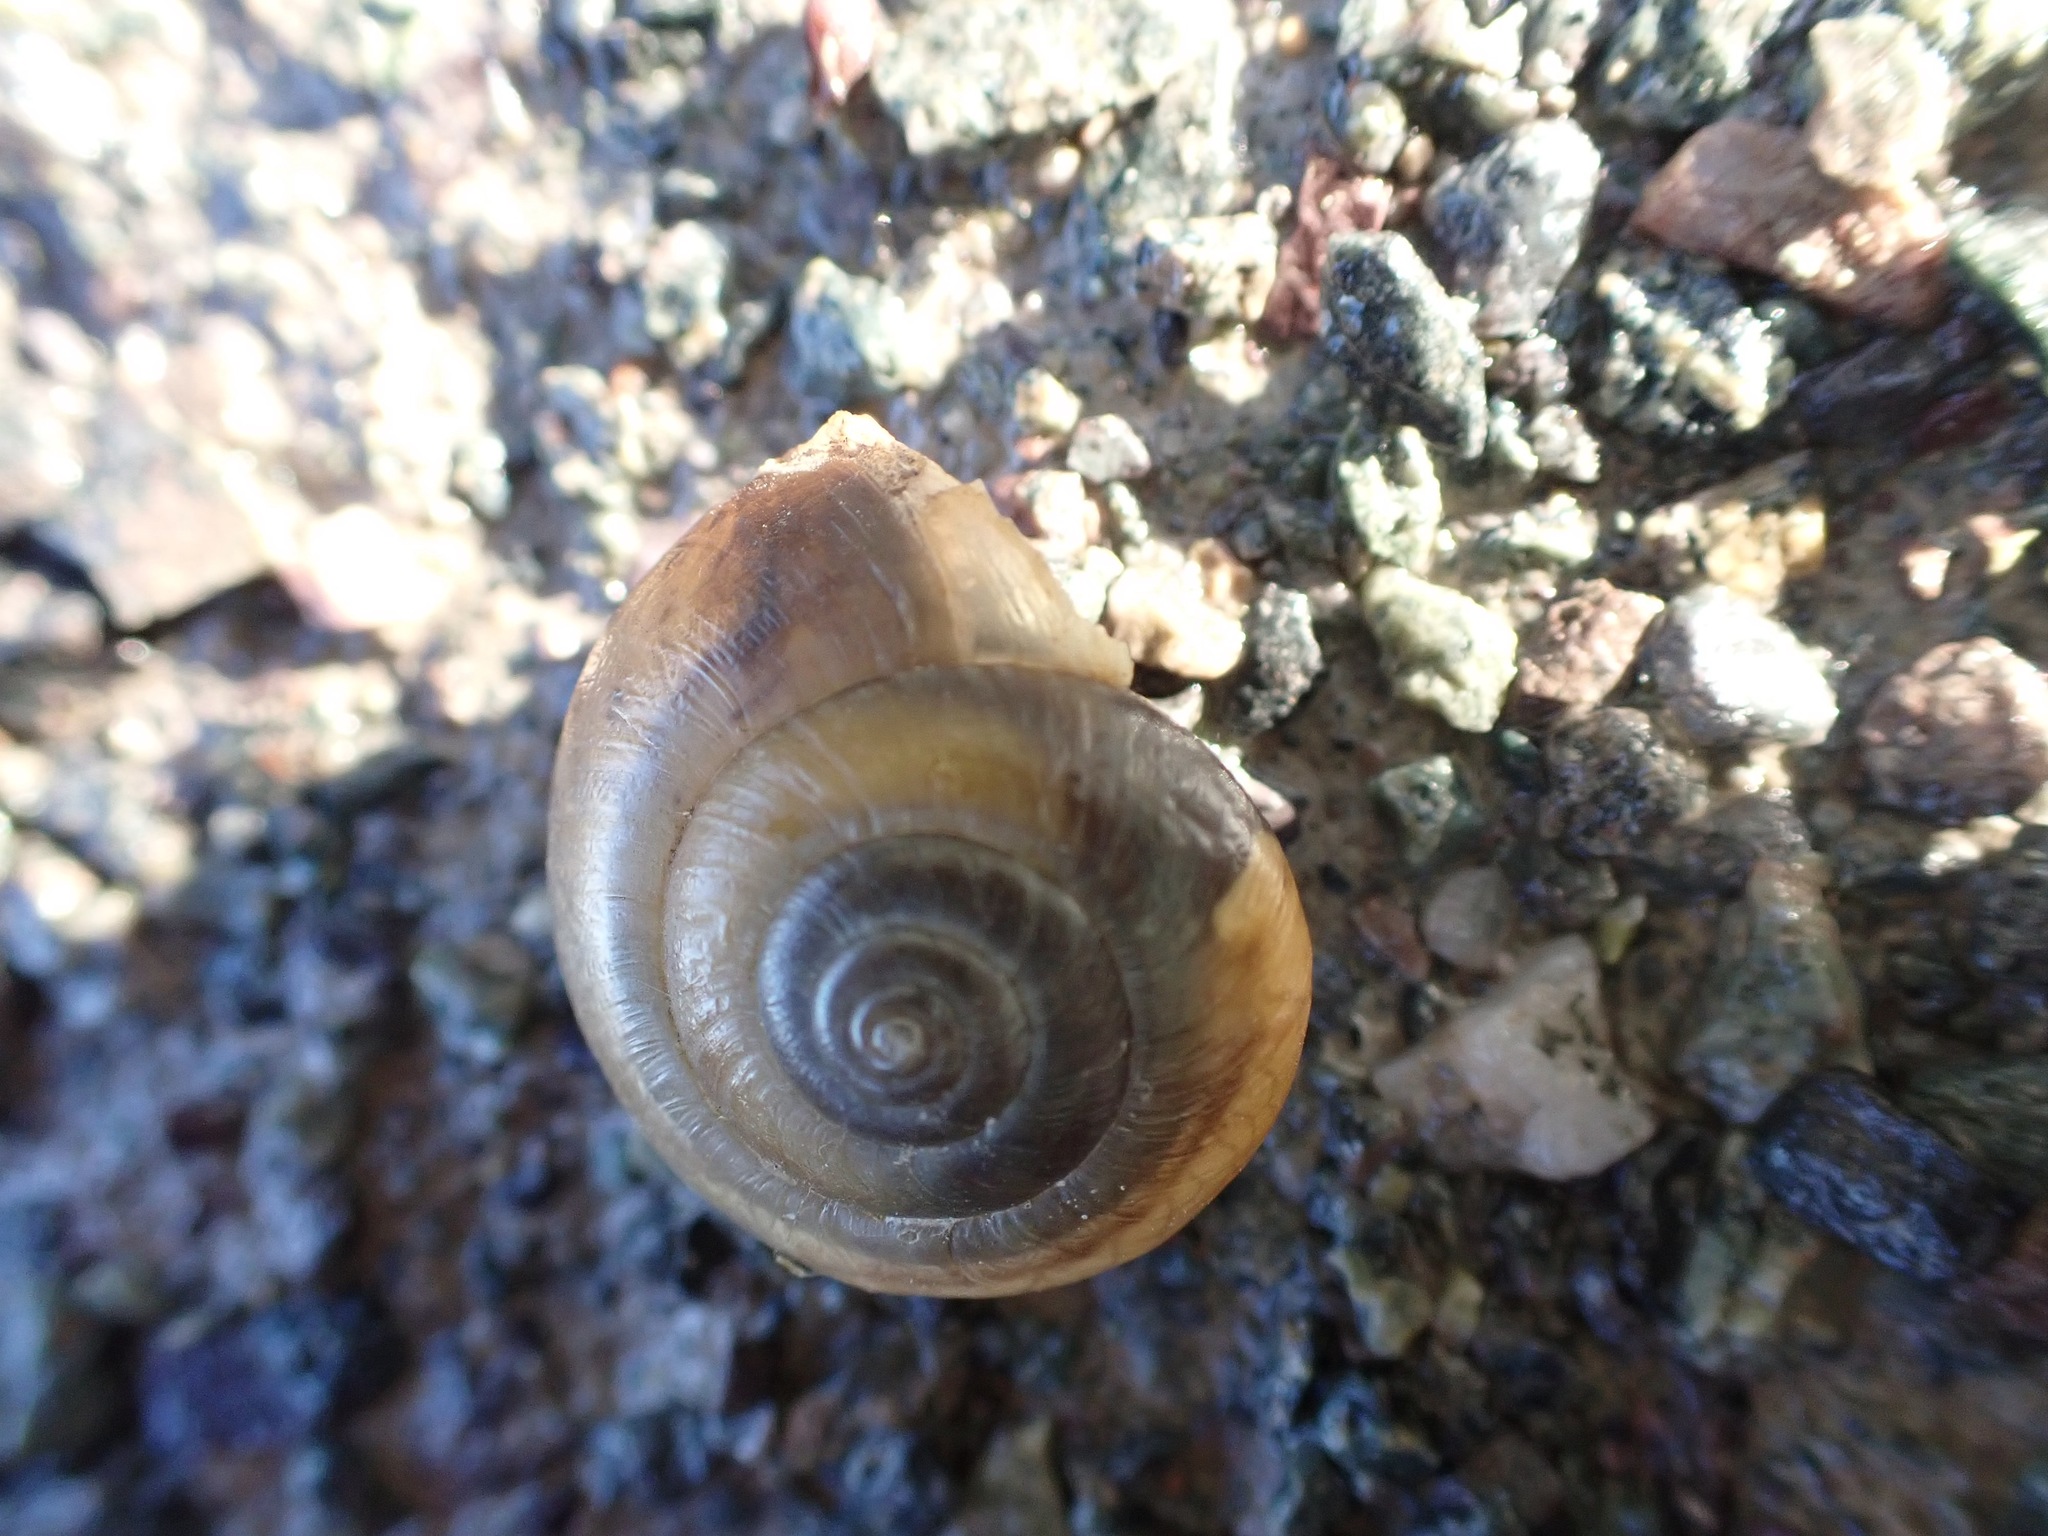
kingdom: Animalia
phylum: Mollusca
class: Gastropoda
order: Stylommatophora
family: Hygromiidae
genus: Monacha
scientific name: Monacha cantiana
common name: Kentish snail
